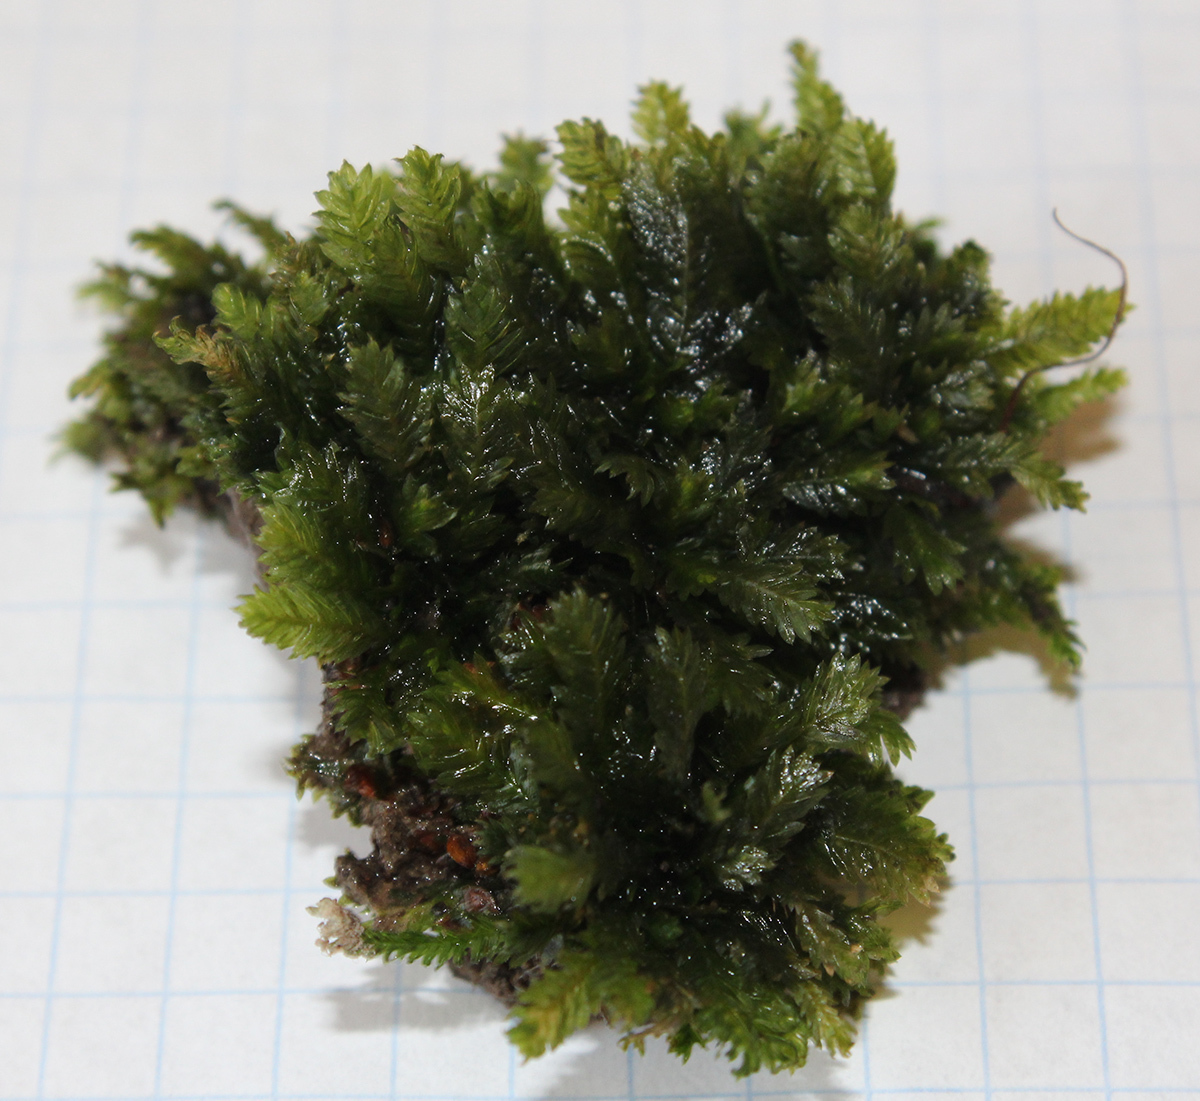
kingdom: Plantae
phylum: Bryophyta
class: Bryopsida
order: Dicranales
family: Fissidentaceae
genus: Fissidens
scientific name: Fissidens taxifolius
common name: Yew-leaved pocket moss
